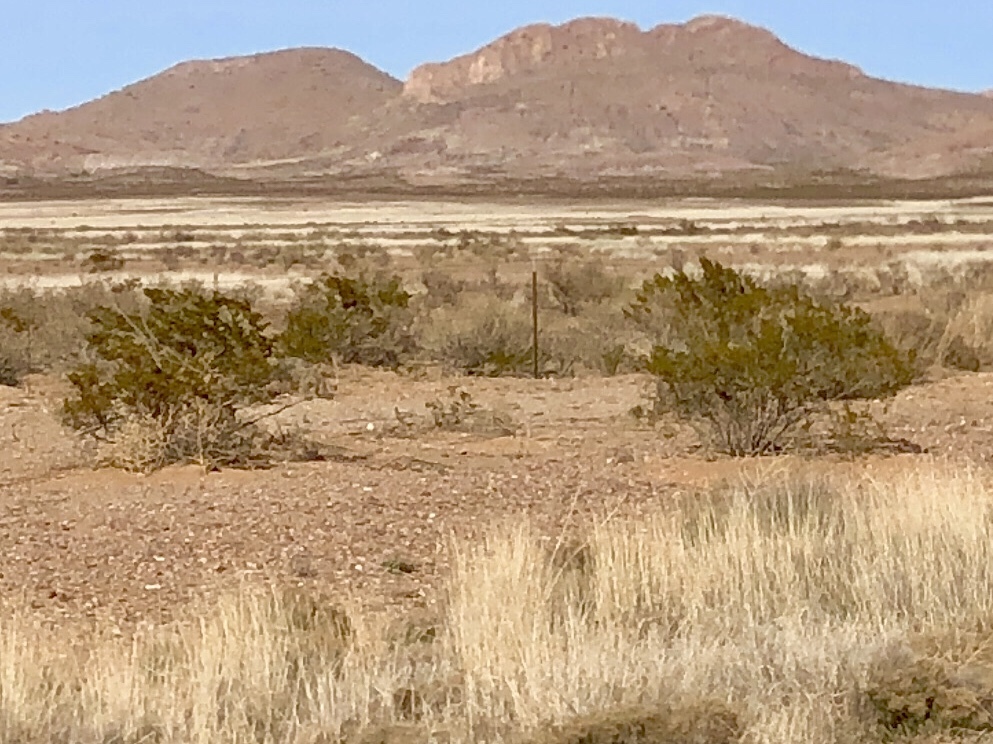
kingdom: Plantae
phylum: Tracheophyta
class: Magnoliopsida
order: Zygophyllales
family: Zygophyllaceae
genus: Larrea
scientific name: Larrea tridentata
